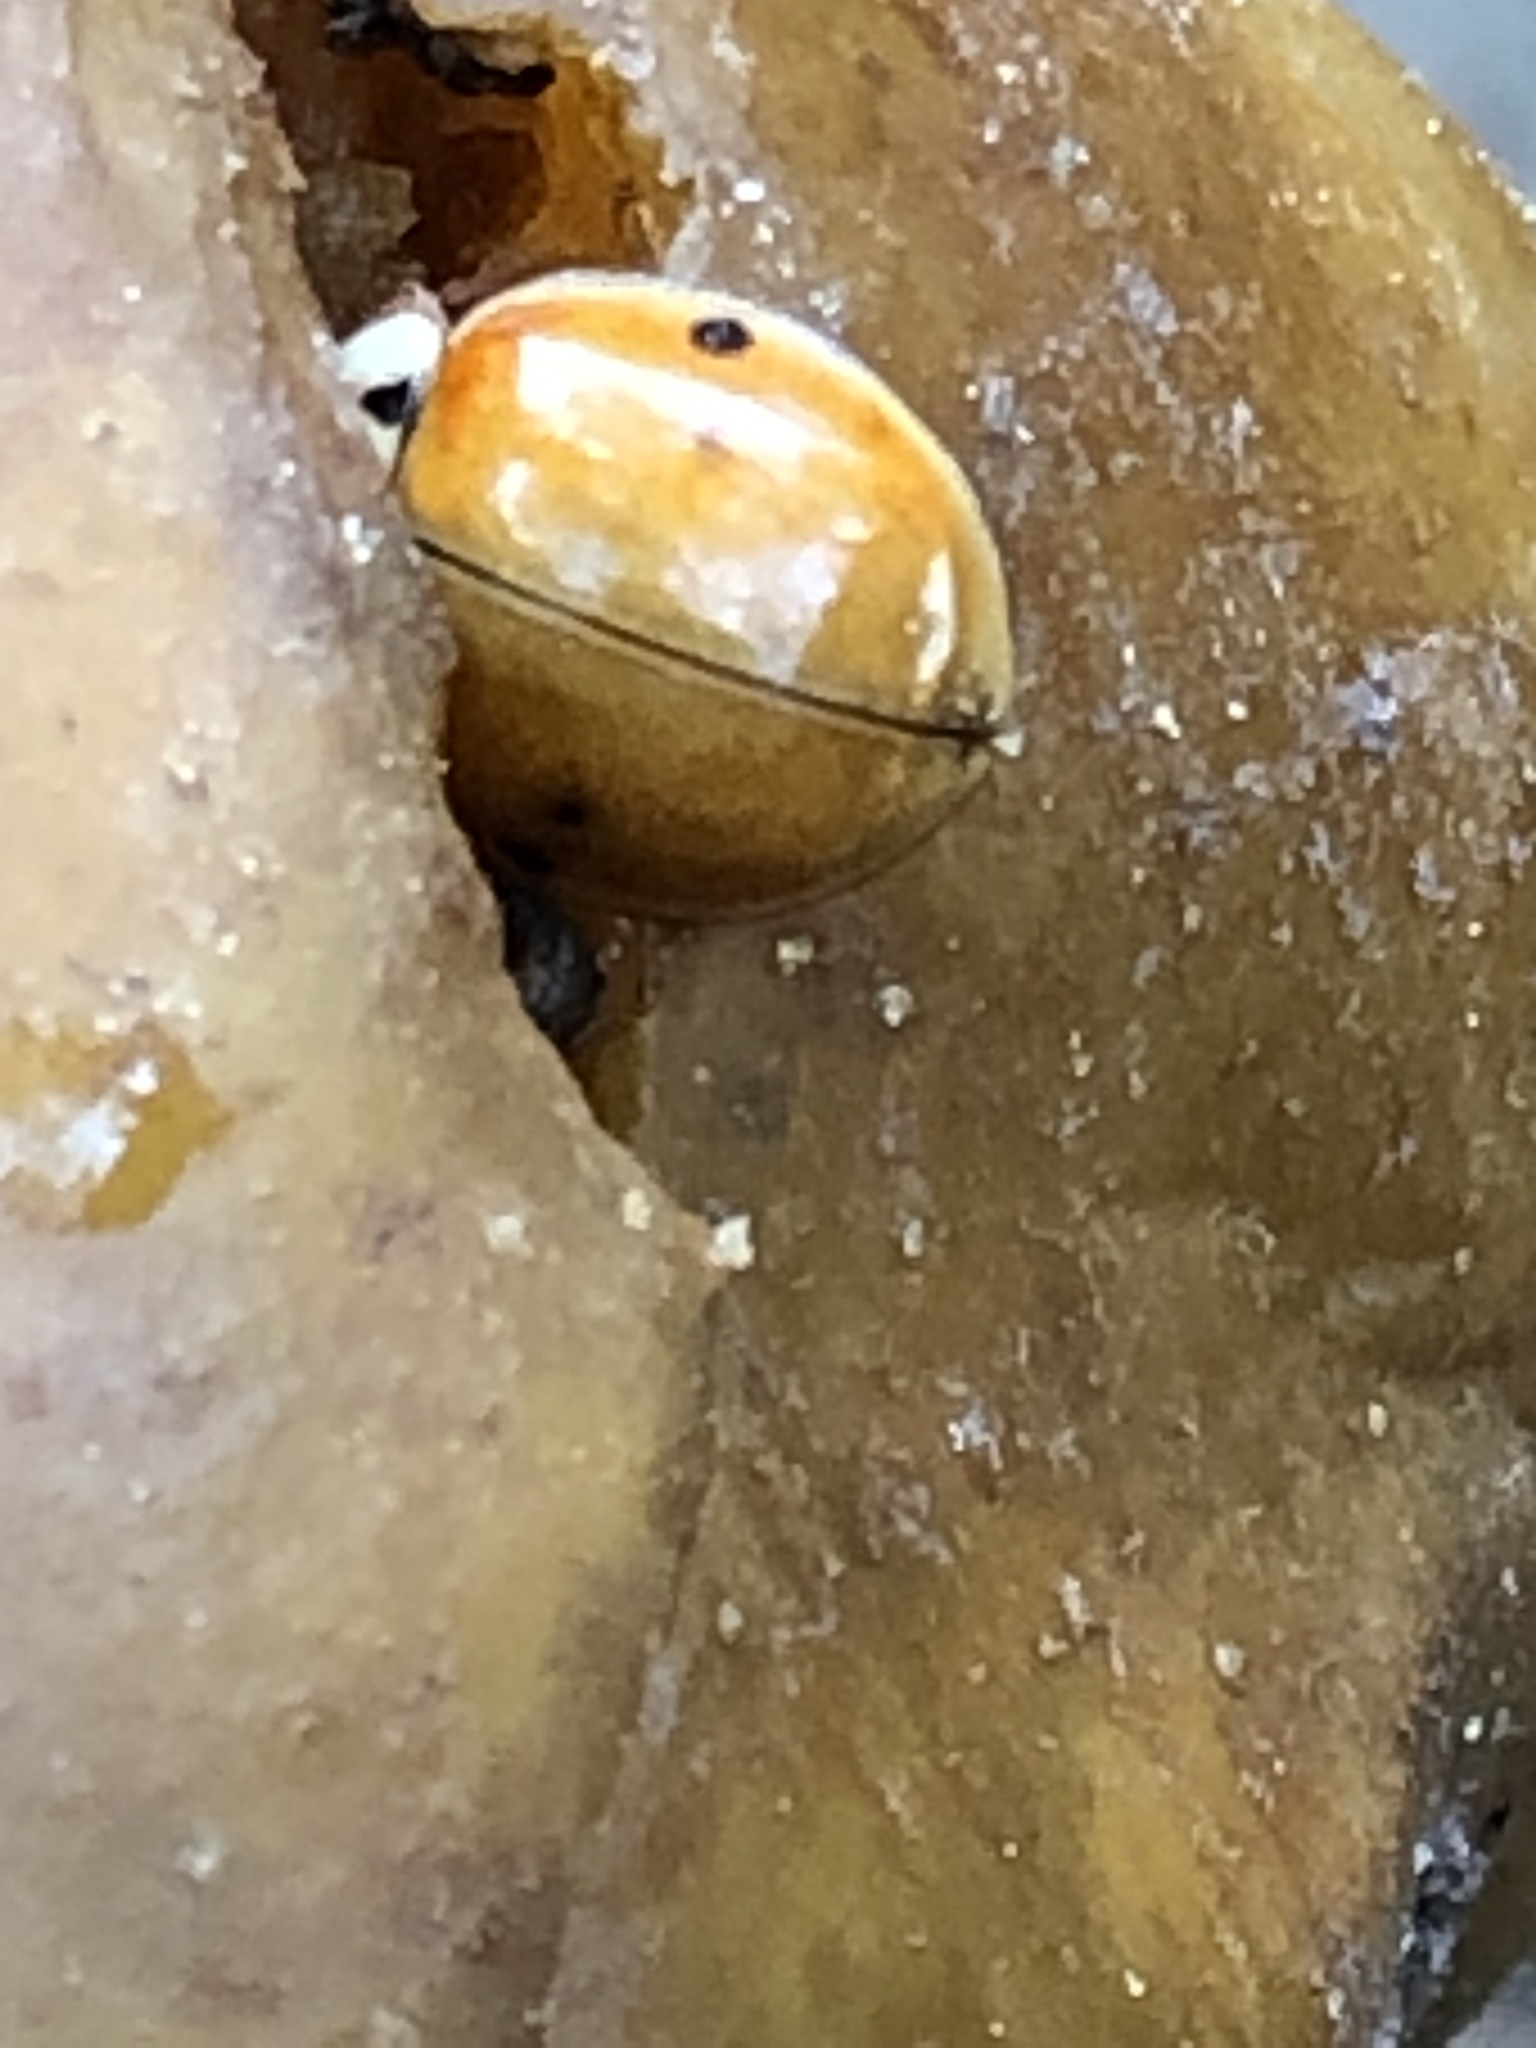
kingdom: Animalia
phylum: Arthropoda
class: Insecta
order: Coleoptera
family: Coccinellidae
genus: Harmonia
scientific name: Harmonia axyridis
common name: Harlequin ladybird
